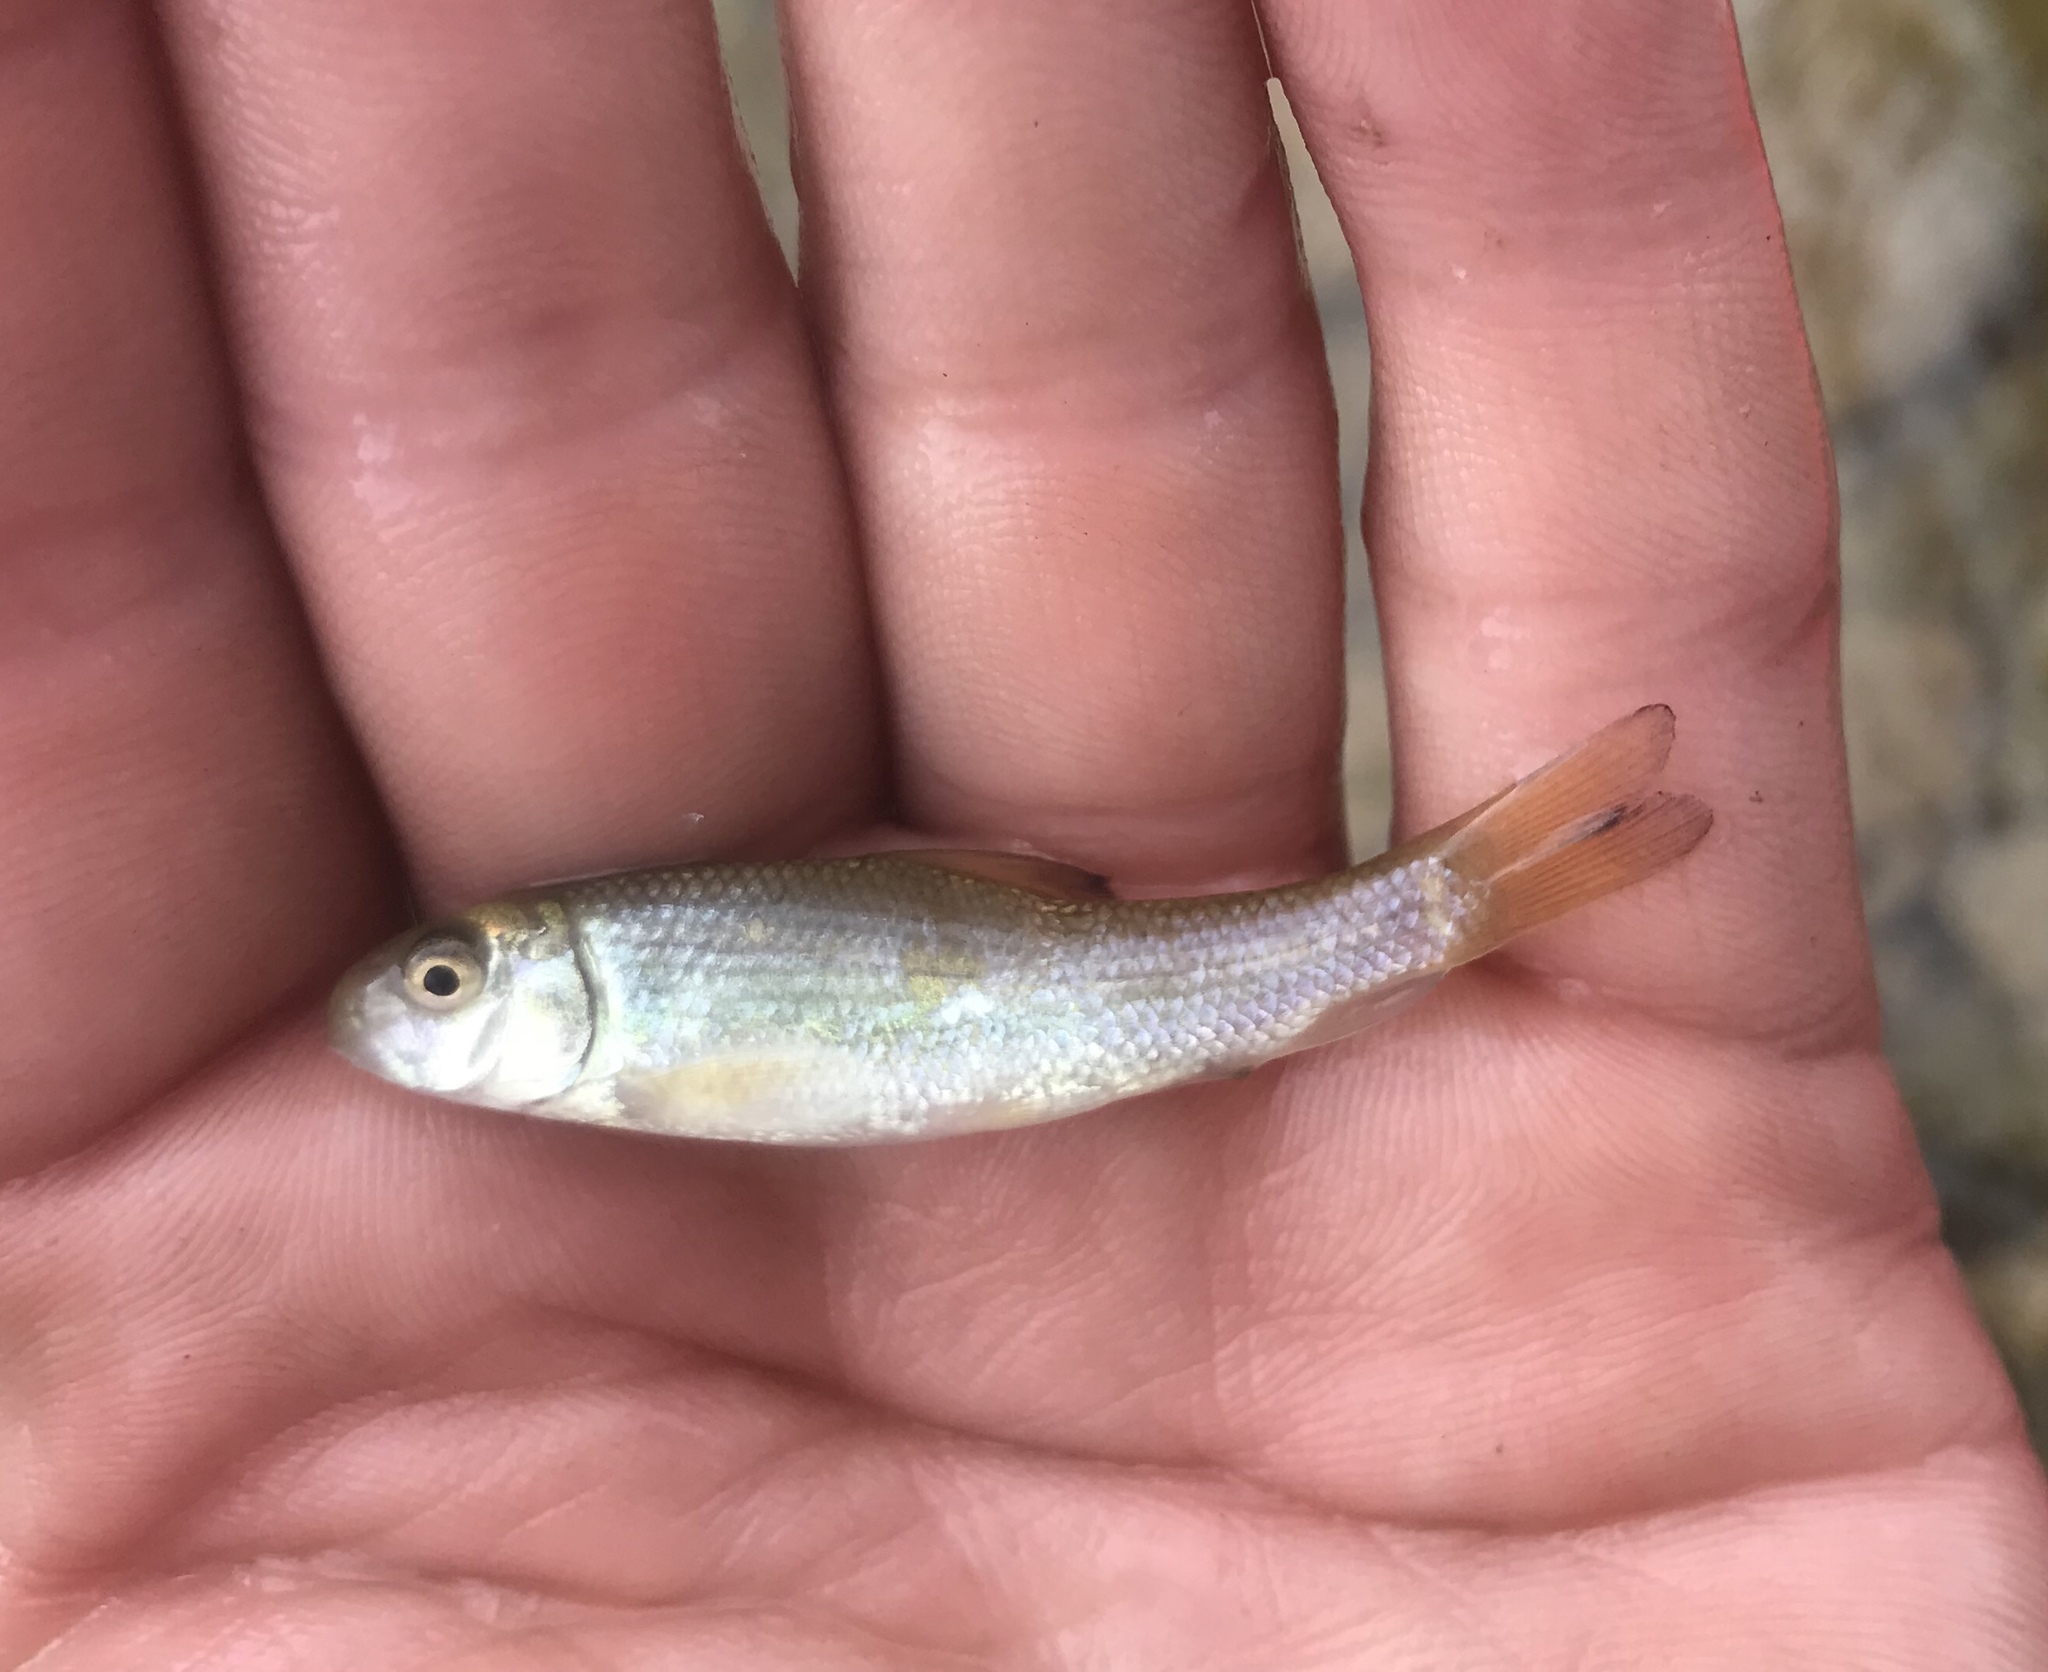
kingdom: Animalia
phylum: Chordata
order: Cypriniformes
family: Catostomidae
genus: Moxostoma
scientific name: Moxostoma congestum
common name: Gray redhorse
